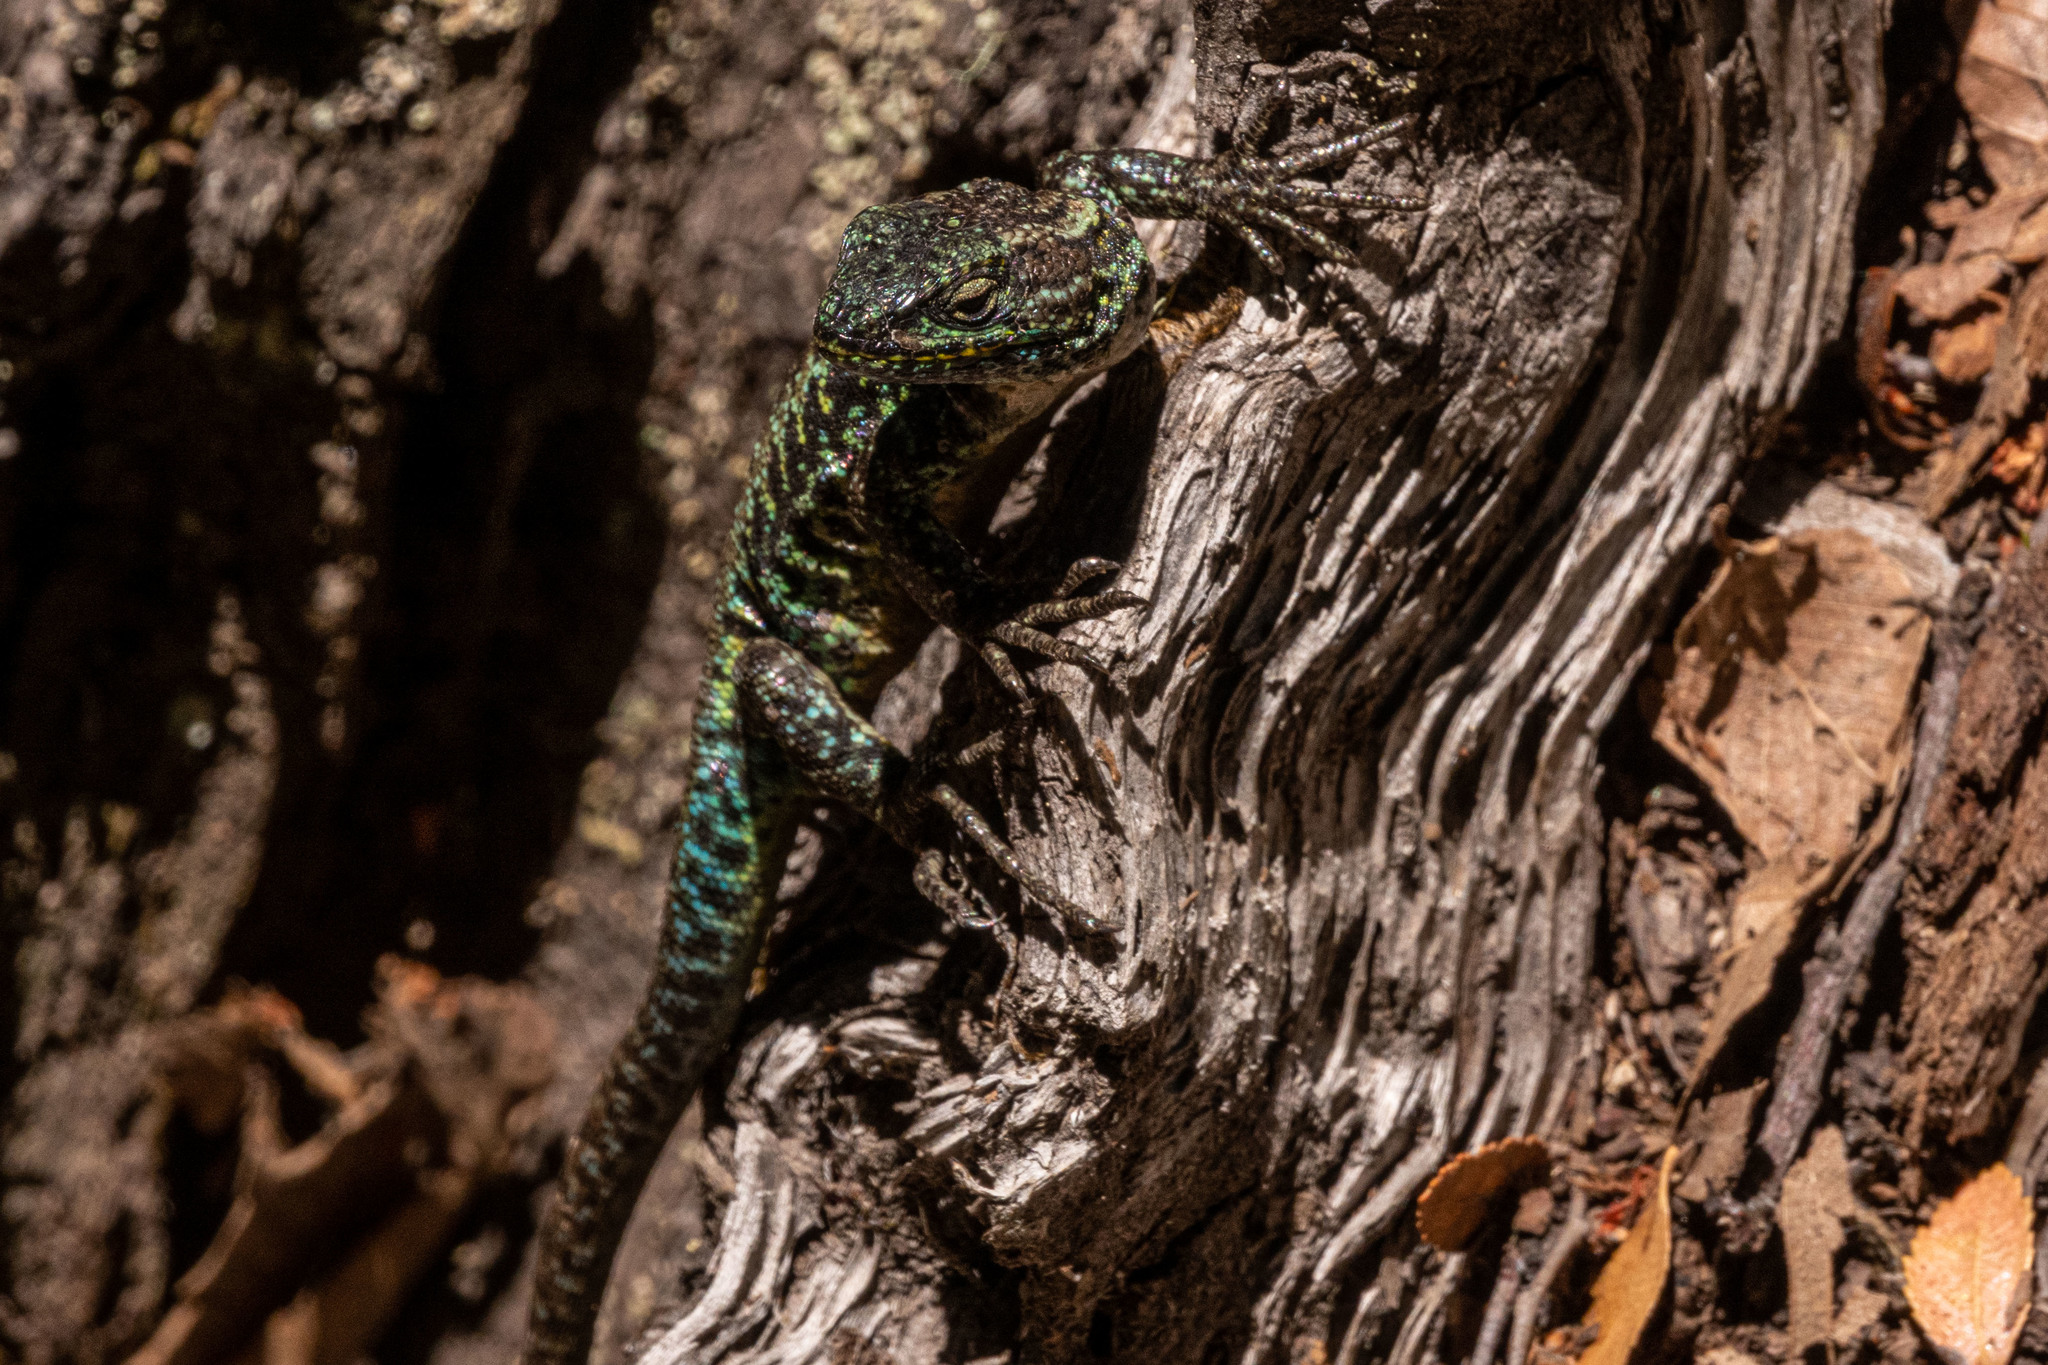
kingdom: Animalia
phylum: Chordata
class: Squamata
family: Liolaemidae
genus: Liolaemus
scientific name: Liolaemus pictus
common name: Painted tree iguana
